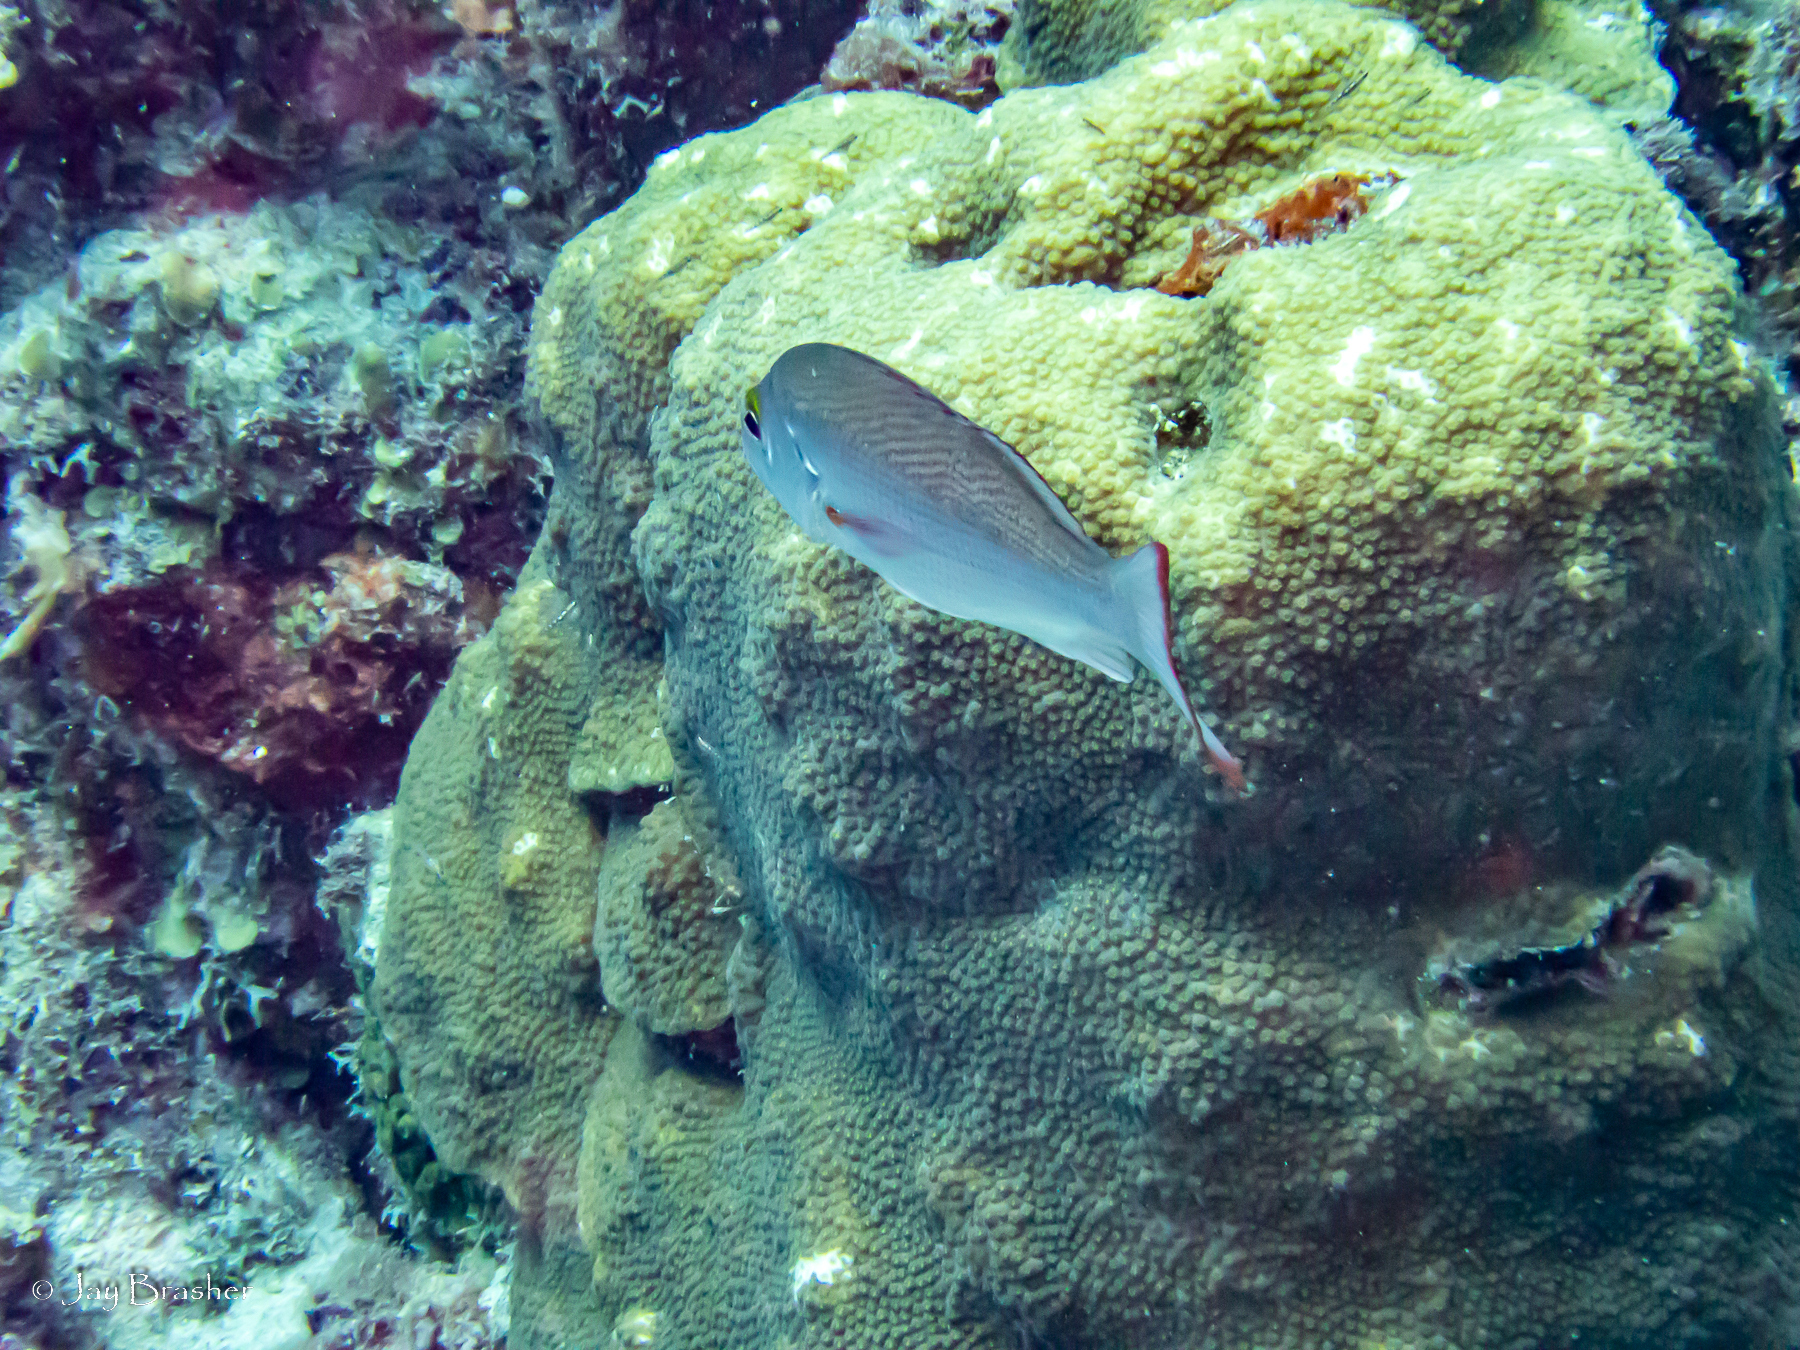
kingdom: Animalia
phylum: Chordata
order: Perciformes
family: Lutjanidae
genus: Lutjanus
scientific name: Lutjanus mahogoni
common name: Spot snapper
